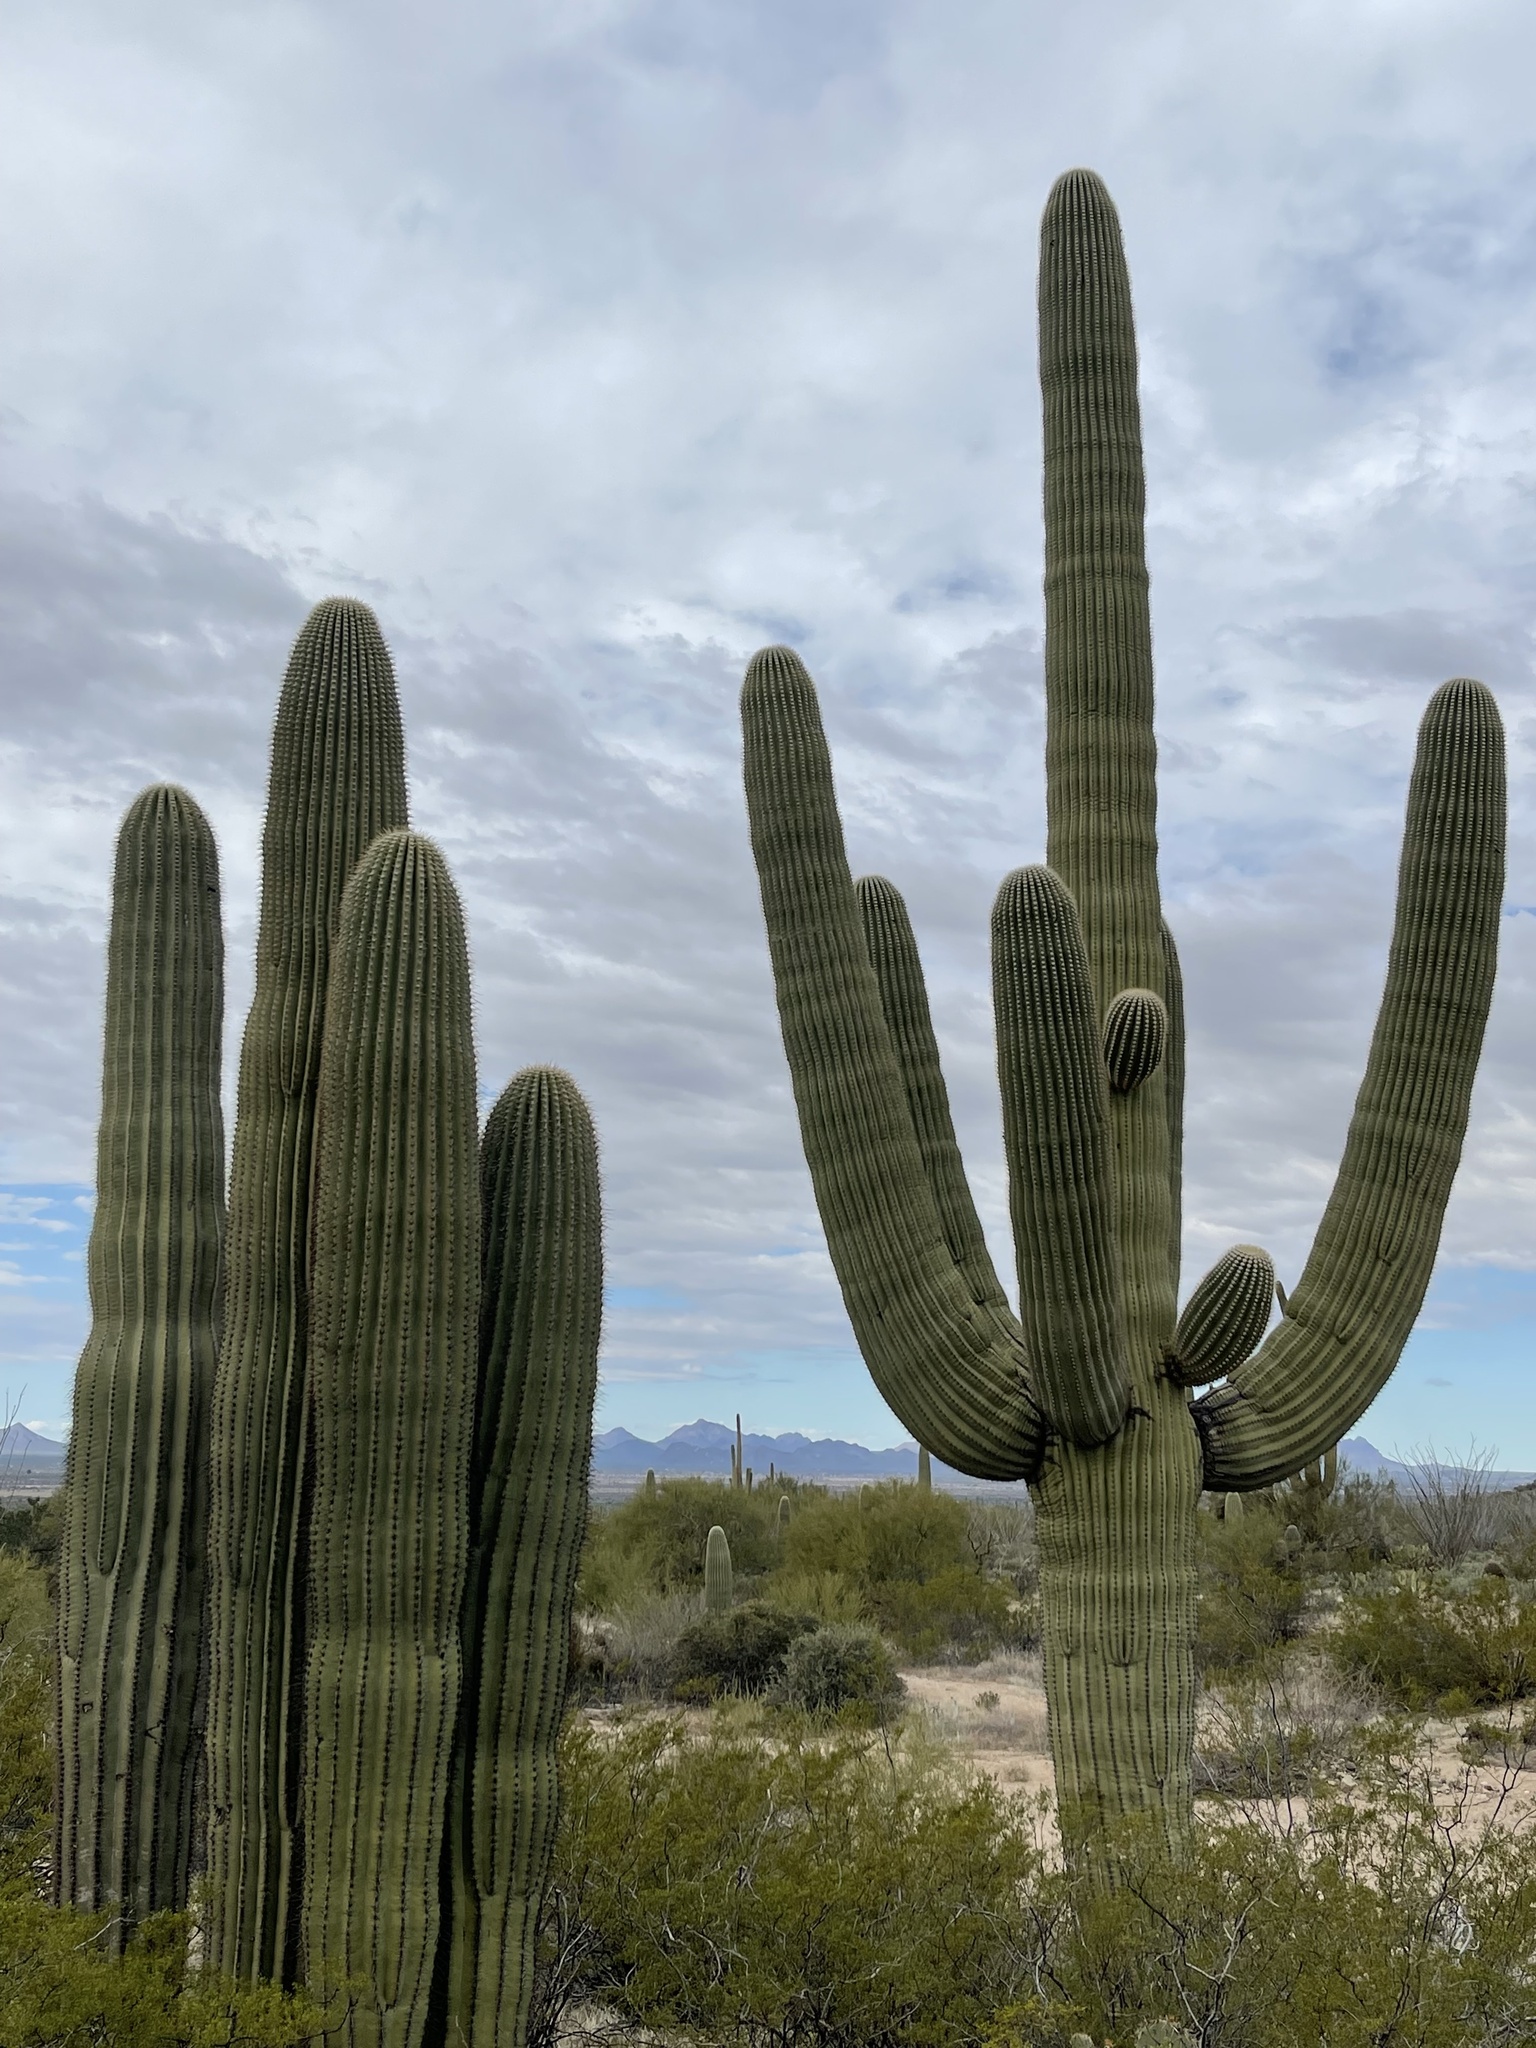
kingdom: Plantae
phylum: Tracheophyta
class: Magnoliopsida
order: Caryophyllales
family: Cactaceae
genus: Carnegiea
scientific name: Carnegiea gigantea
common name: Saguaro
